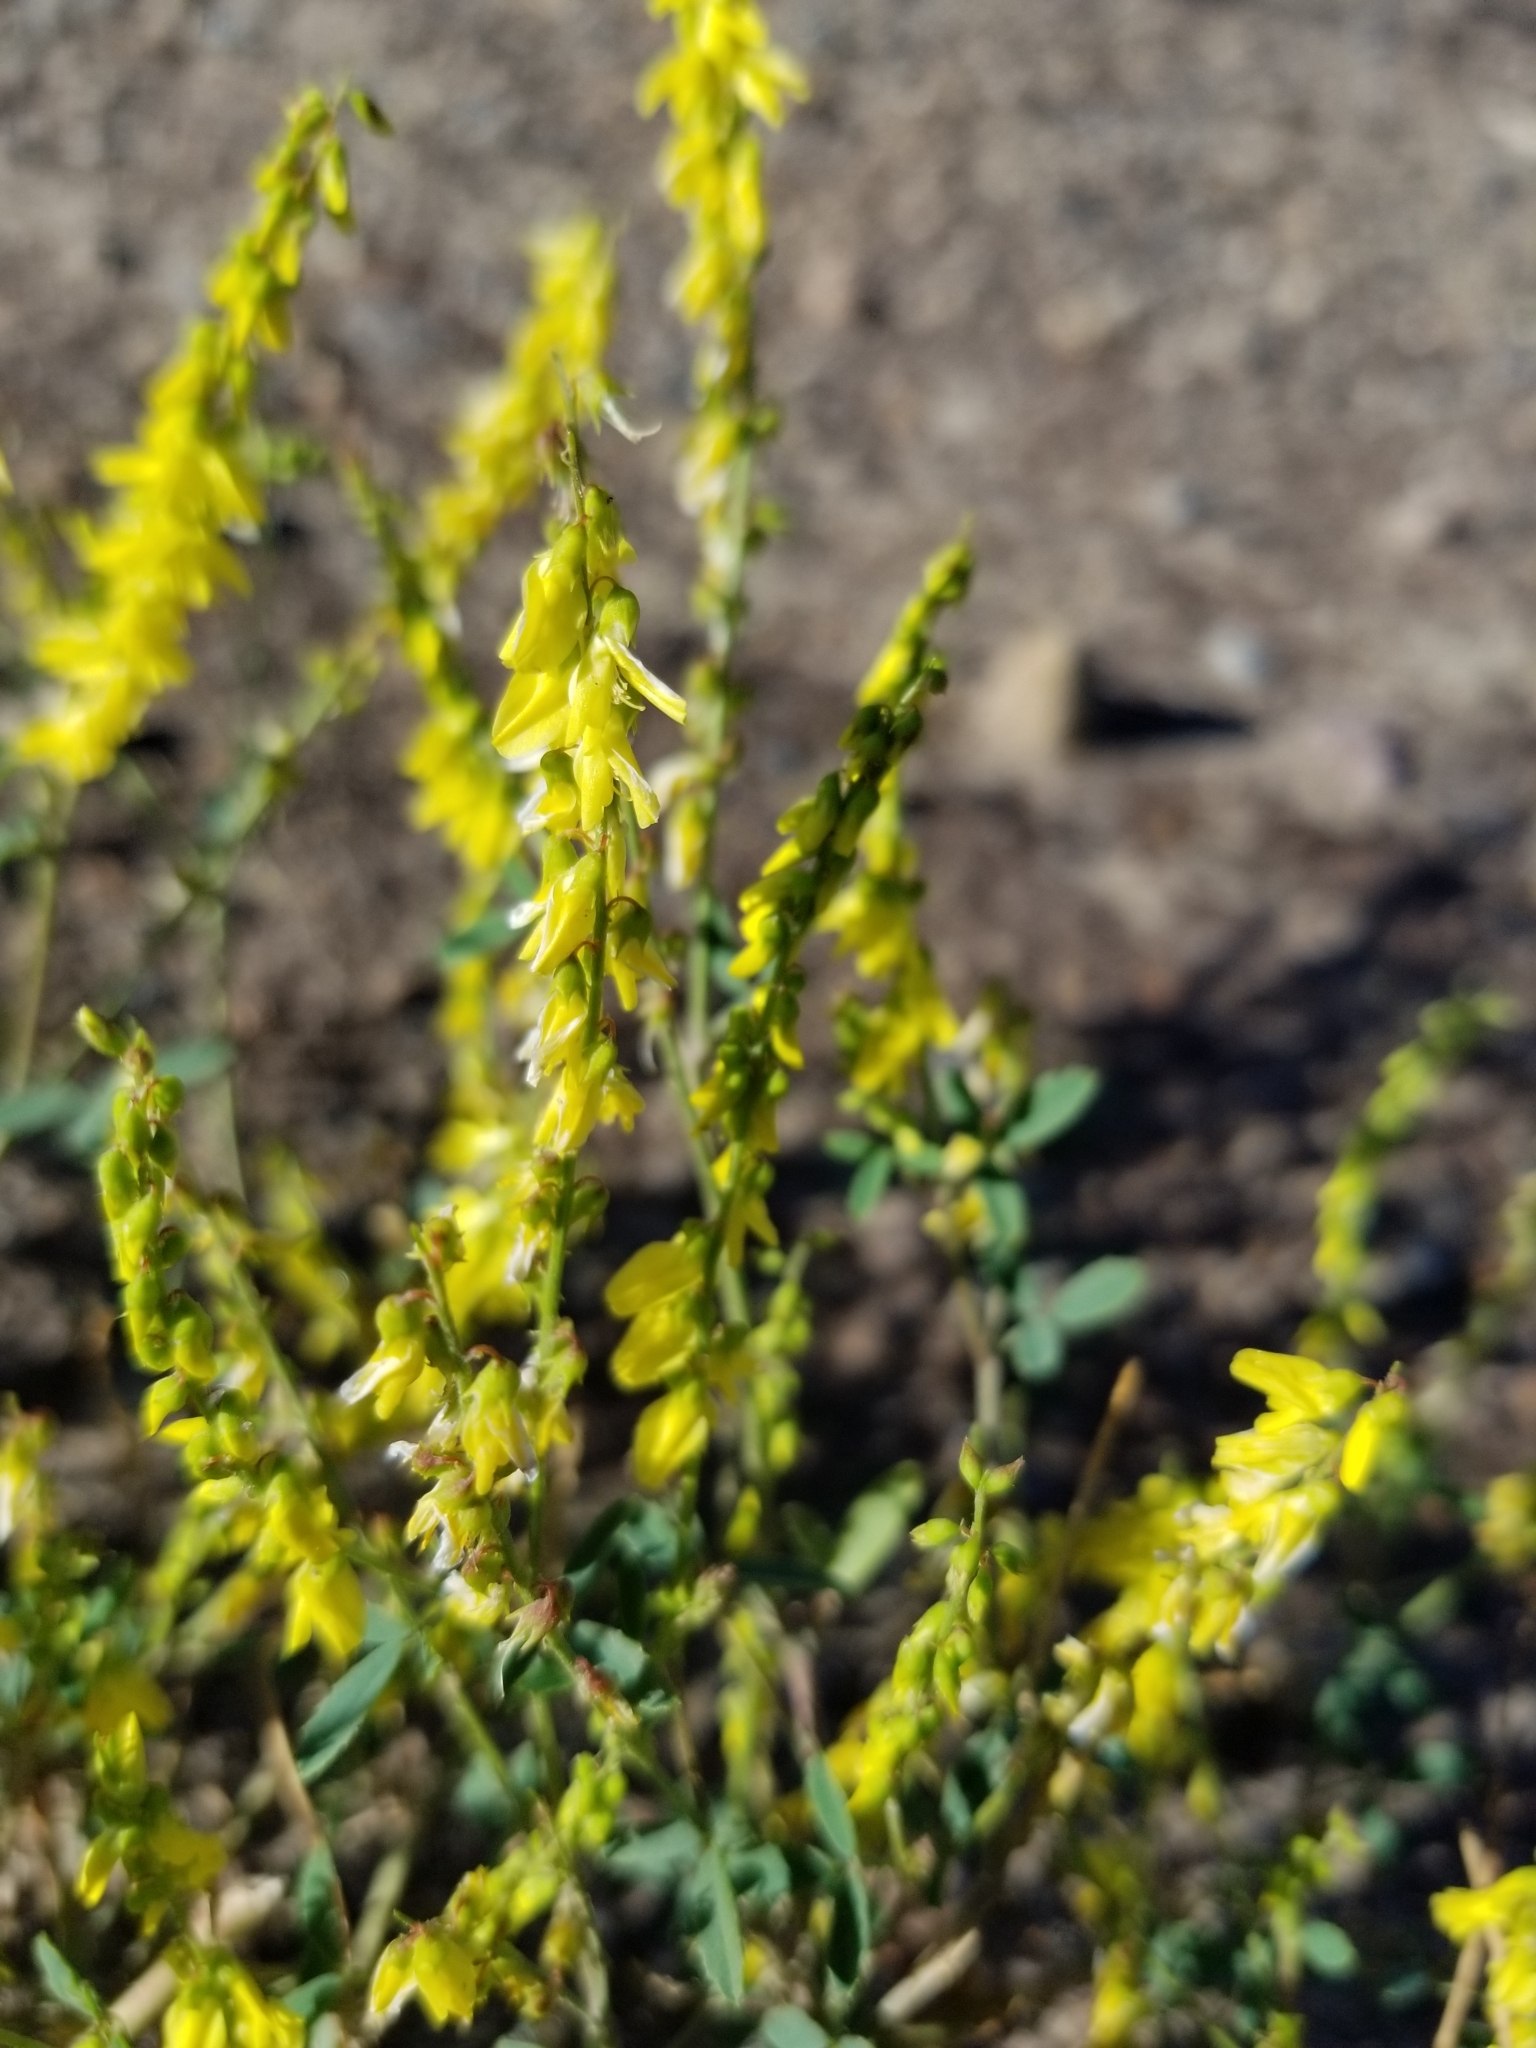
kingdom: Plantae
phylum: Tracheophyta
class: Magnoliopsida
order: Fabales
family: Fabaceae
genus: Melilotus
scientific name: Melilotus officinalis
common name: Sweetclover
